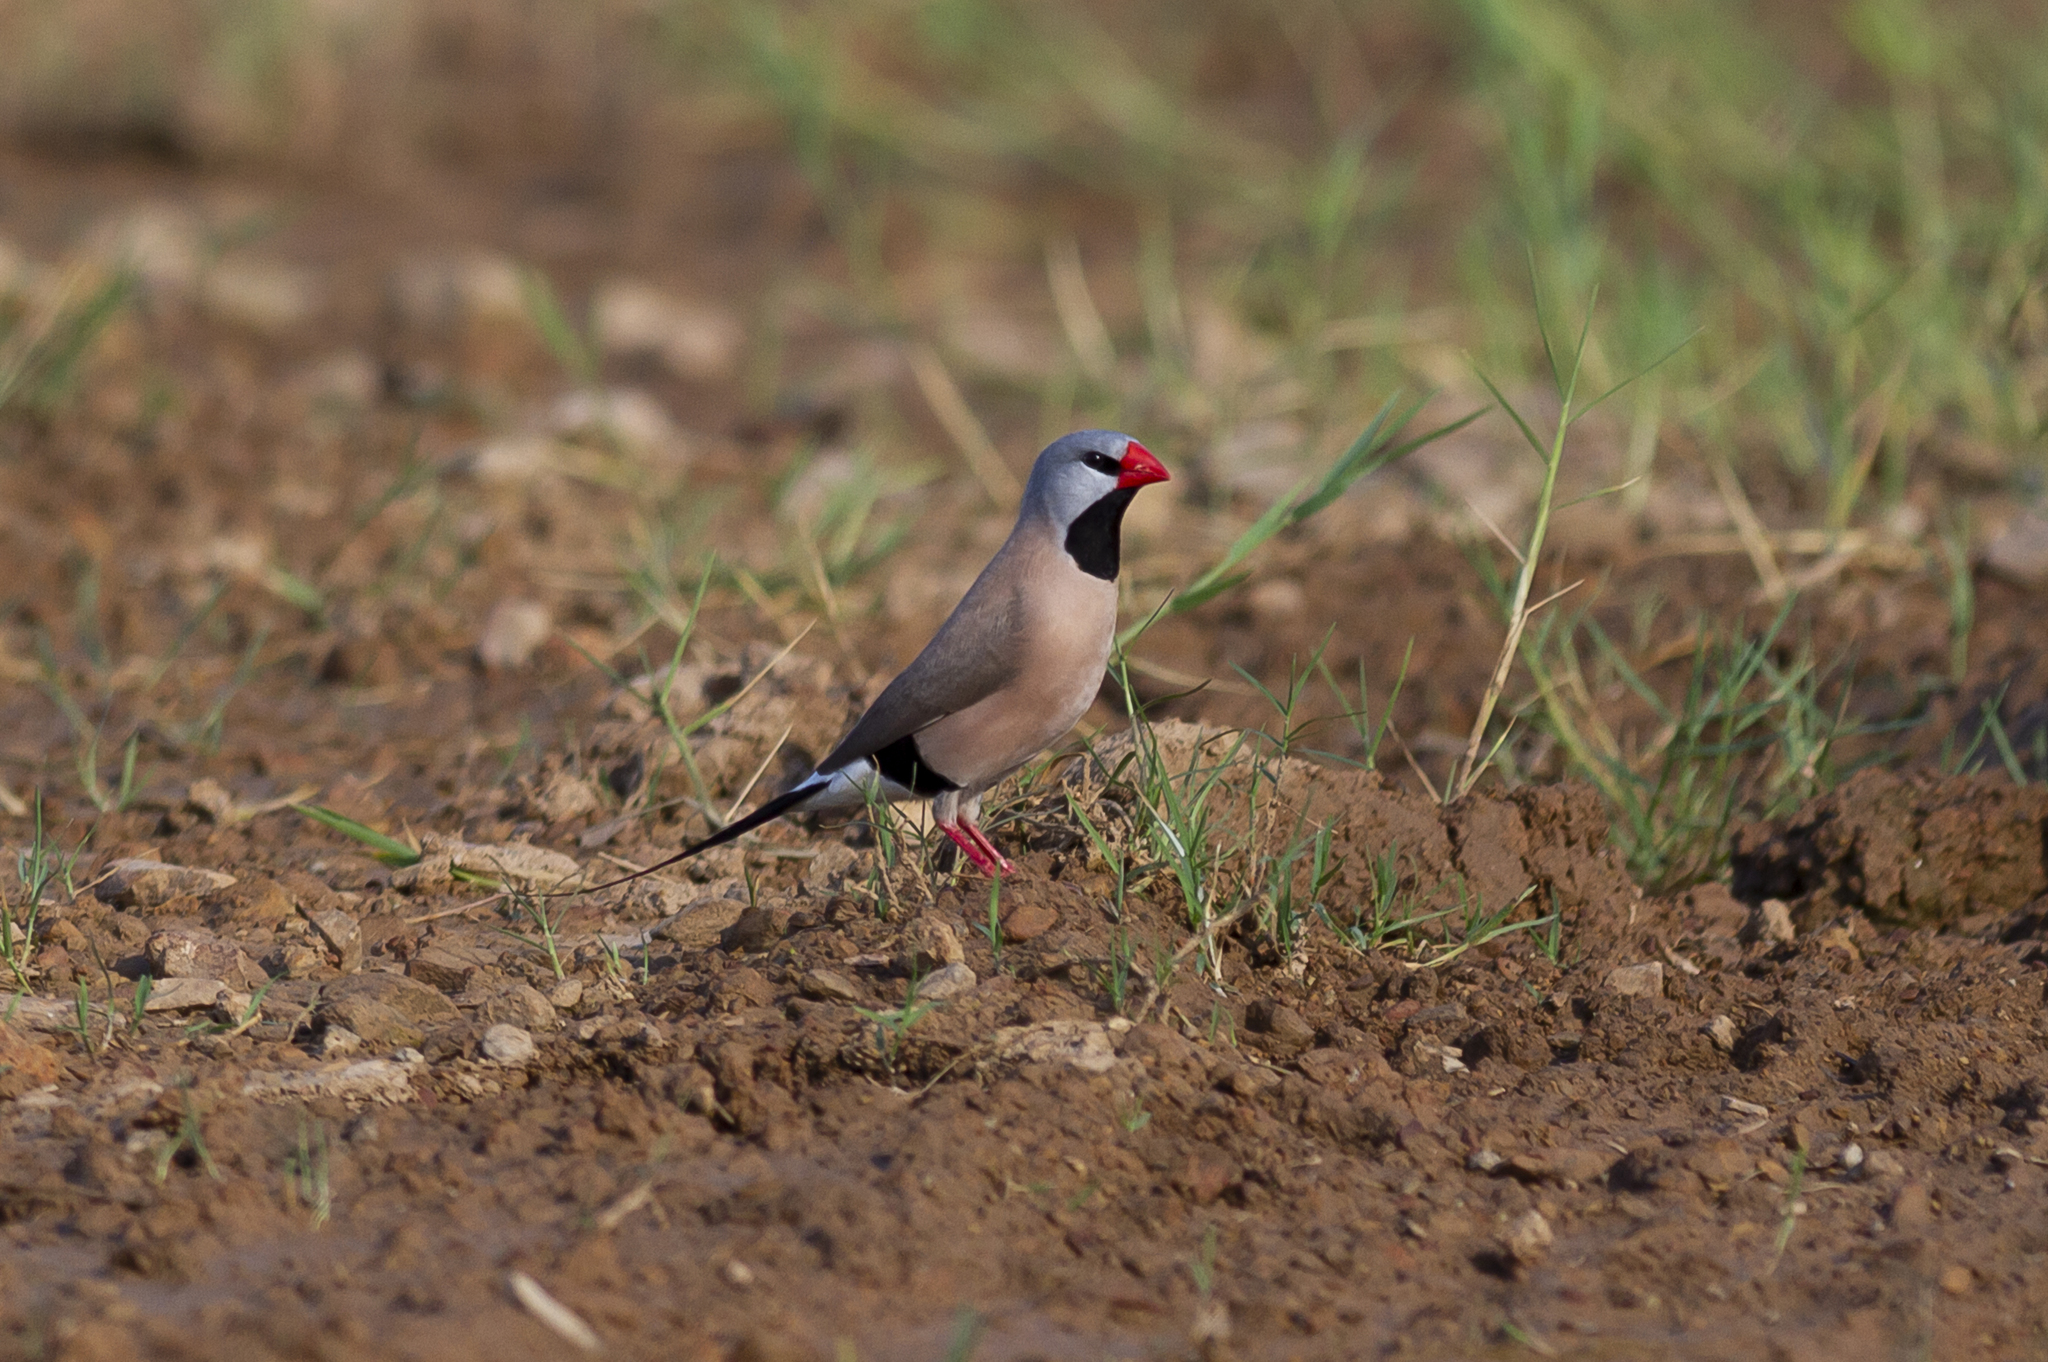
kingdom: Animalia
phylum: Chordata
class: Aves
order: Passeriformes
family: Estrildidae
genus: Poephila
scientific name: Poephila acuticauda
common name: Long-tailed finch
